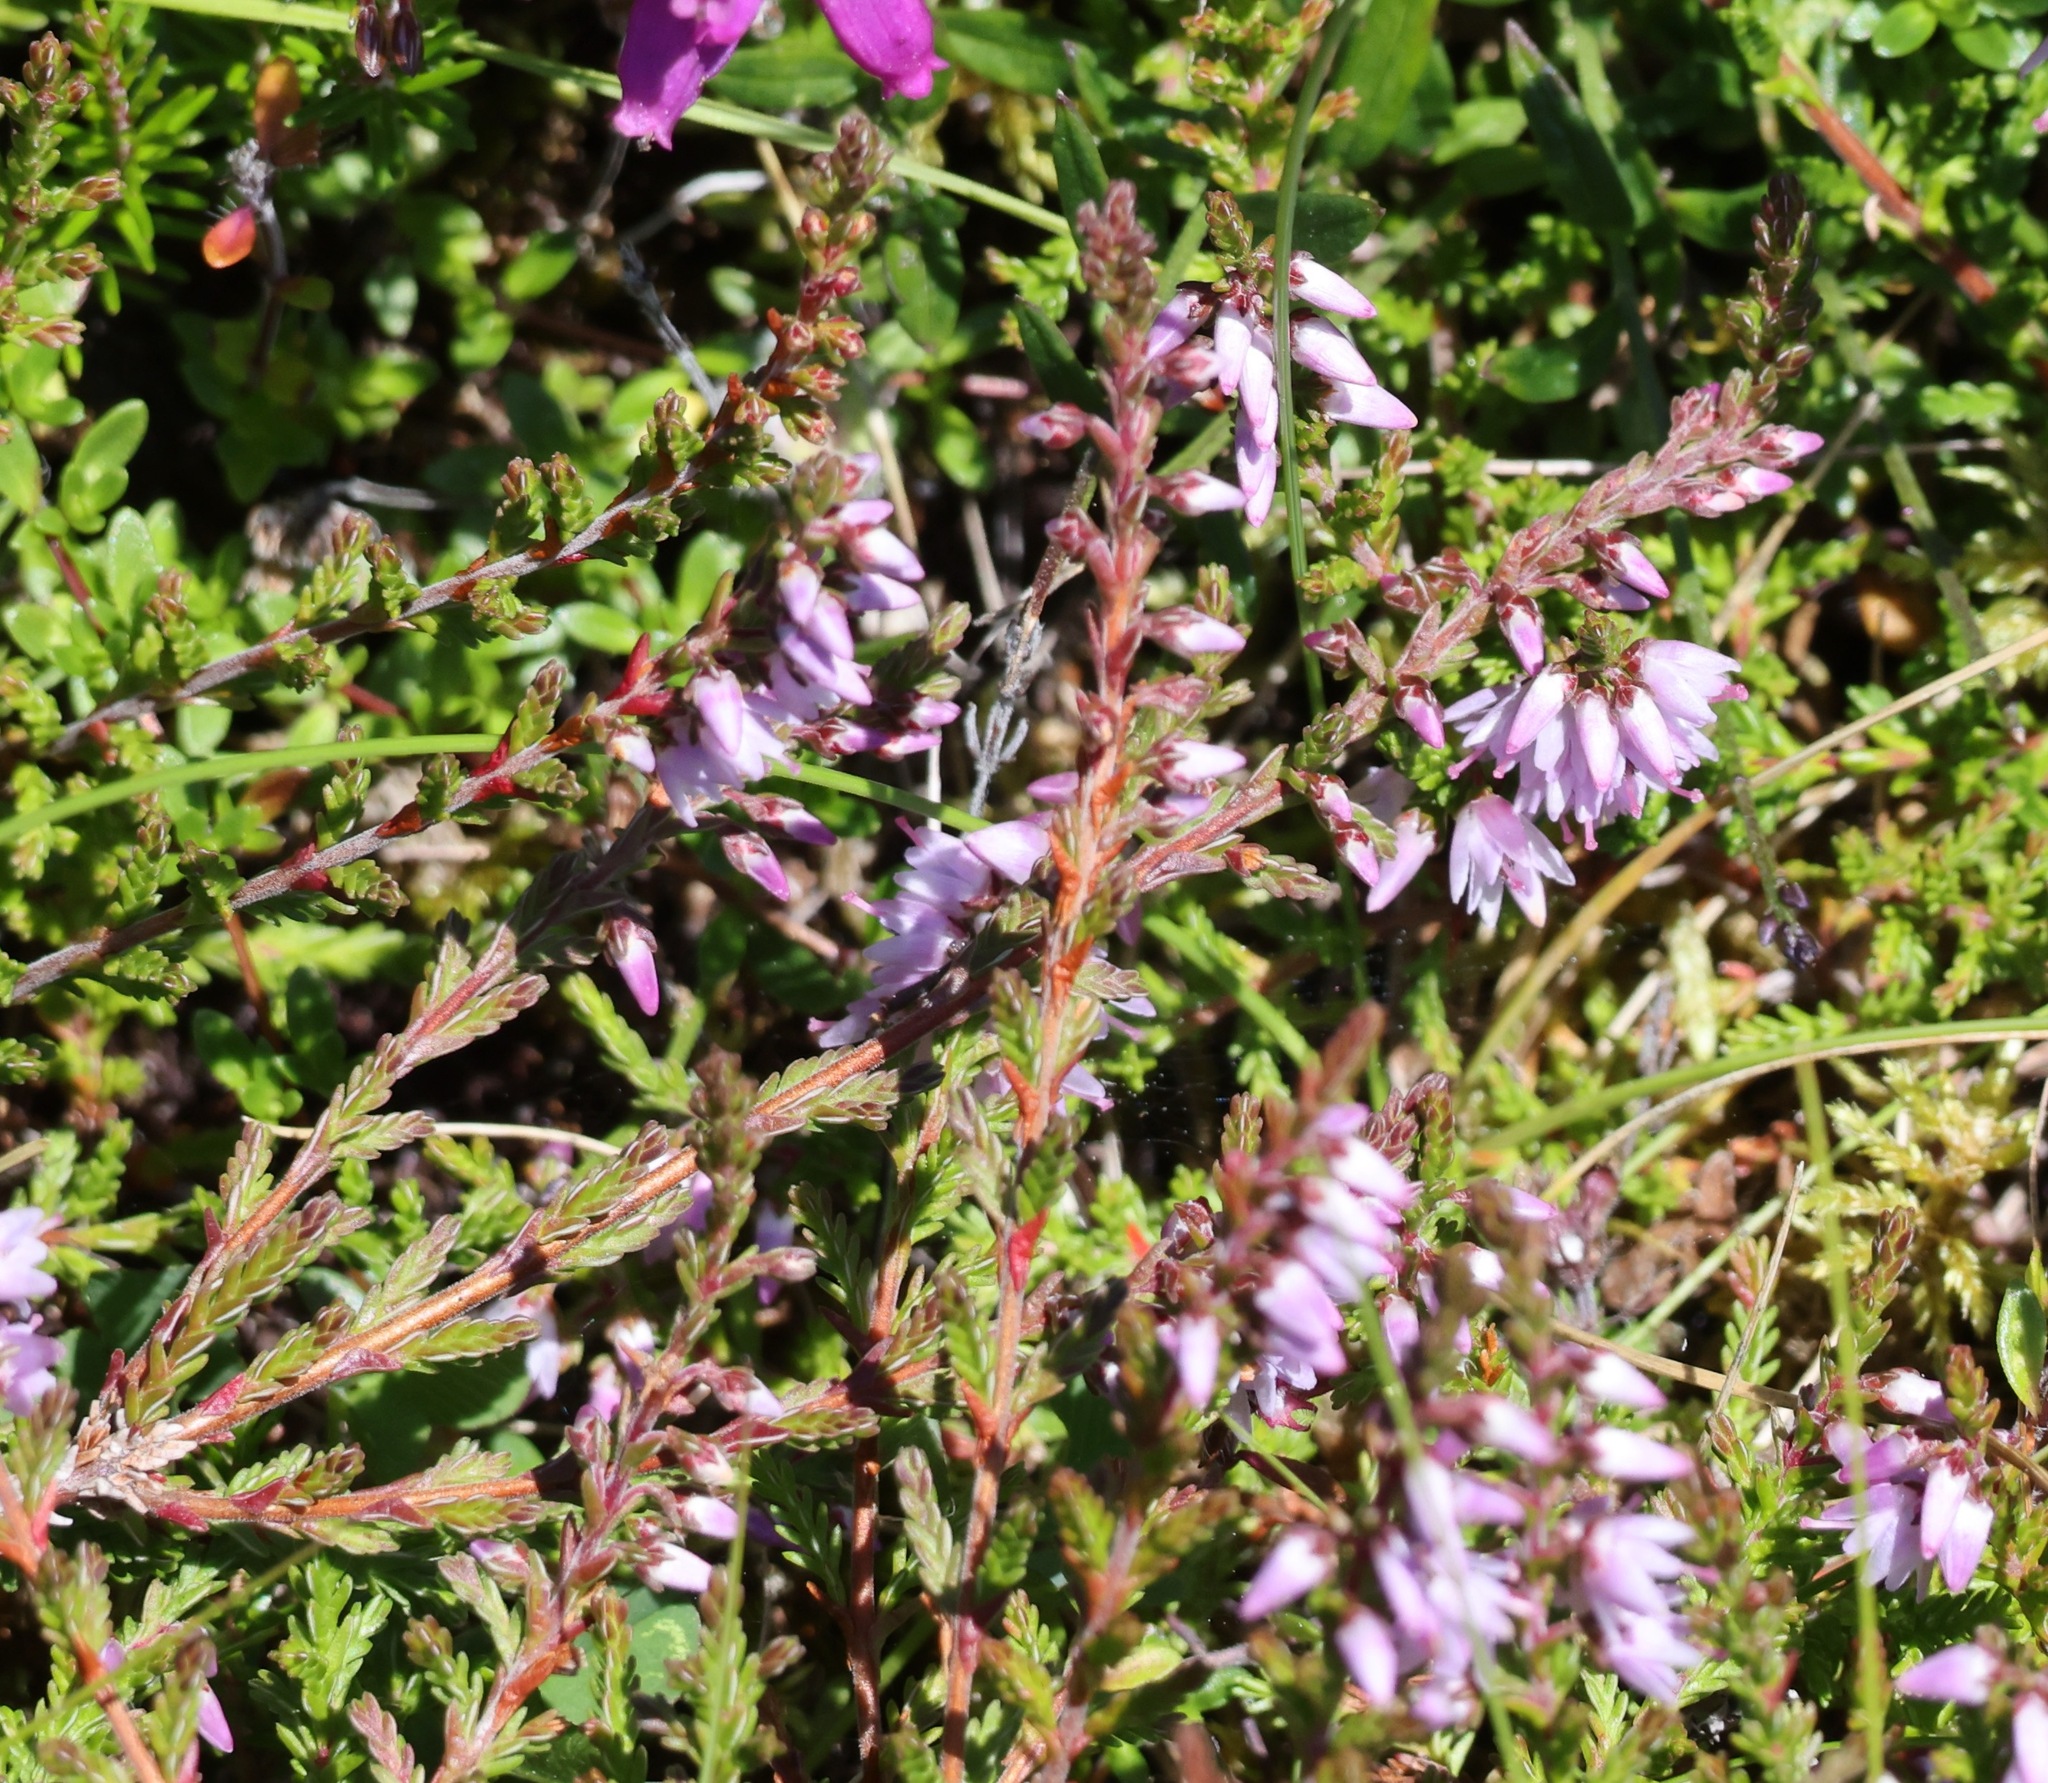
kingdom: Plantae
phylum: Tracheophyta
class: Magnoliopsida
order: Ericales
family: Ericaceae
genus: Calluna
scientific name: Calluna vulgaris
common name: Heather
